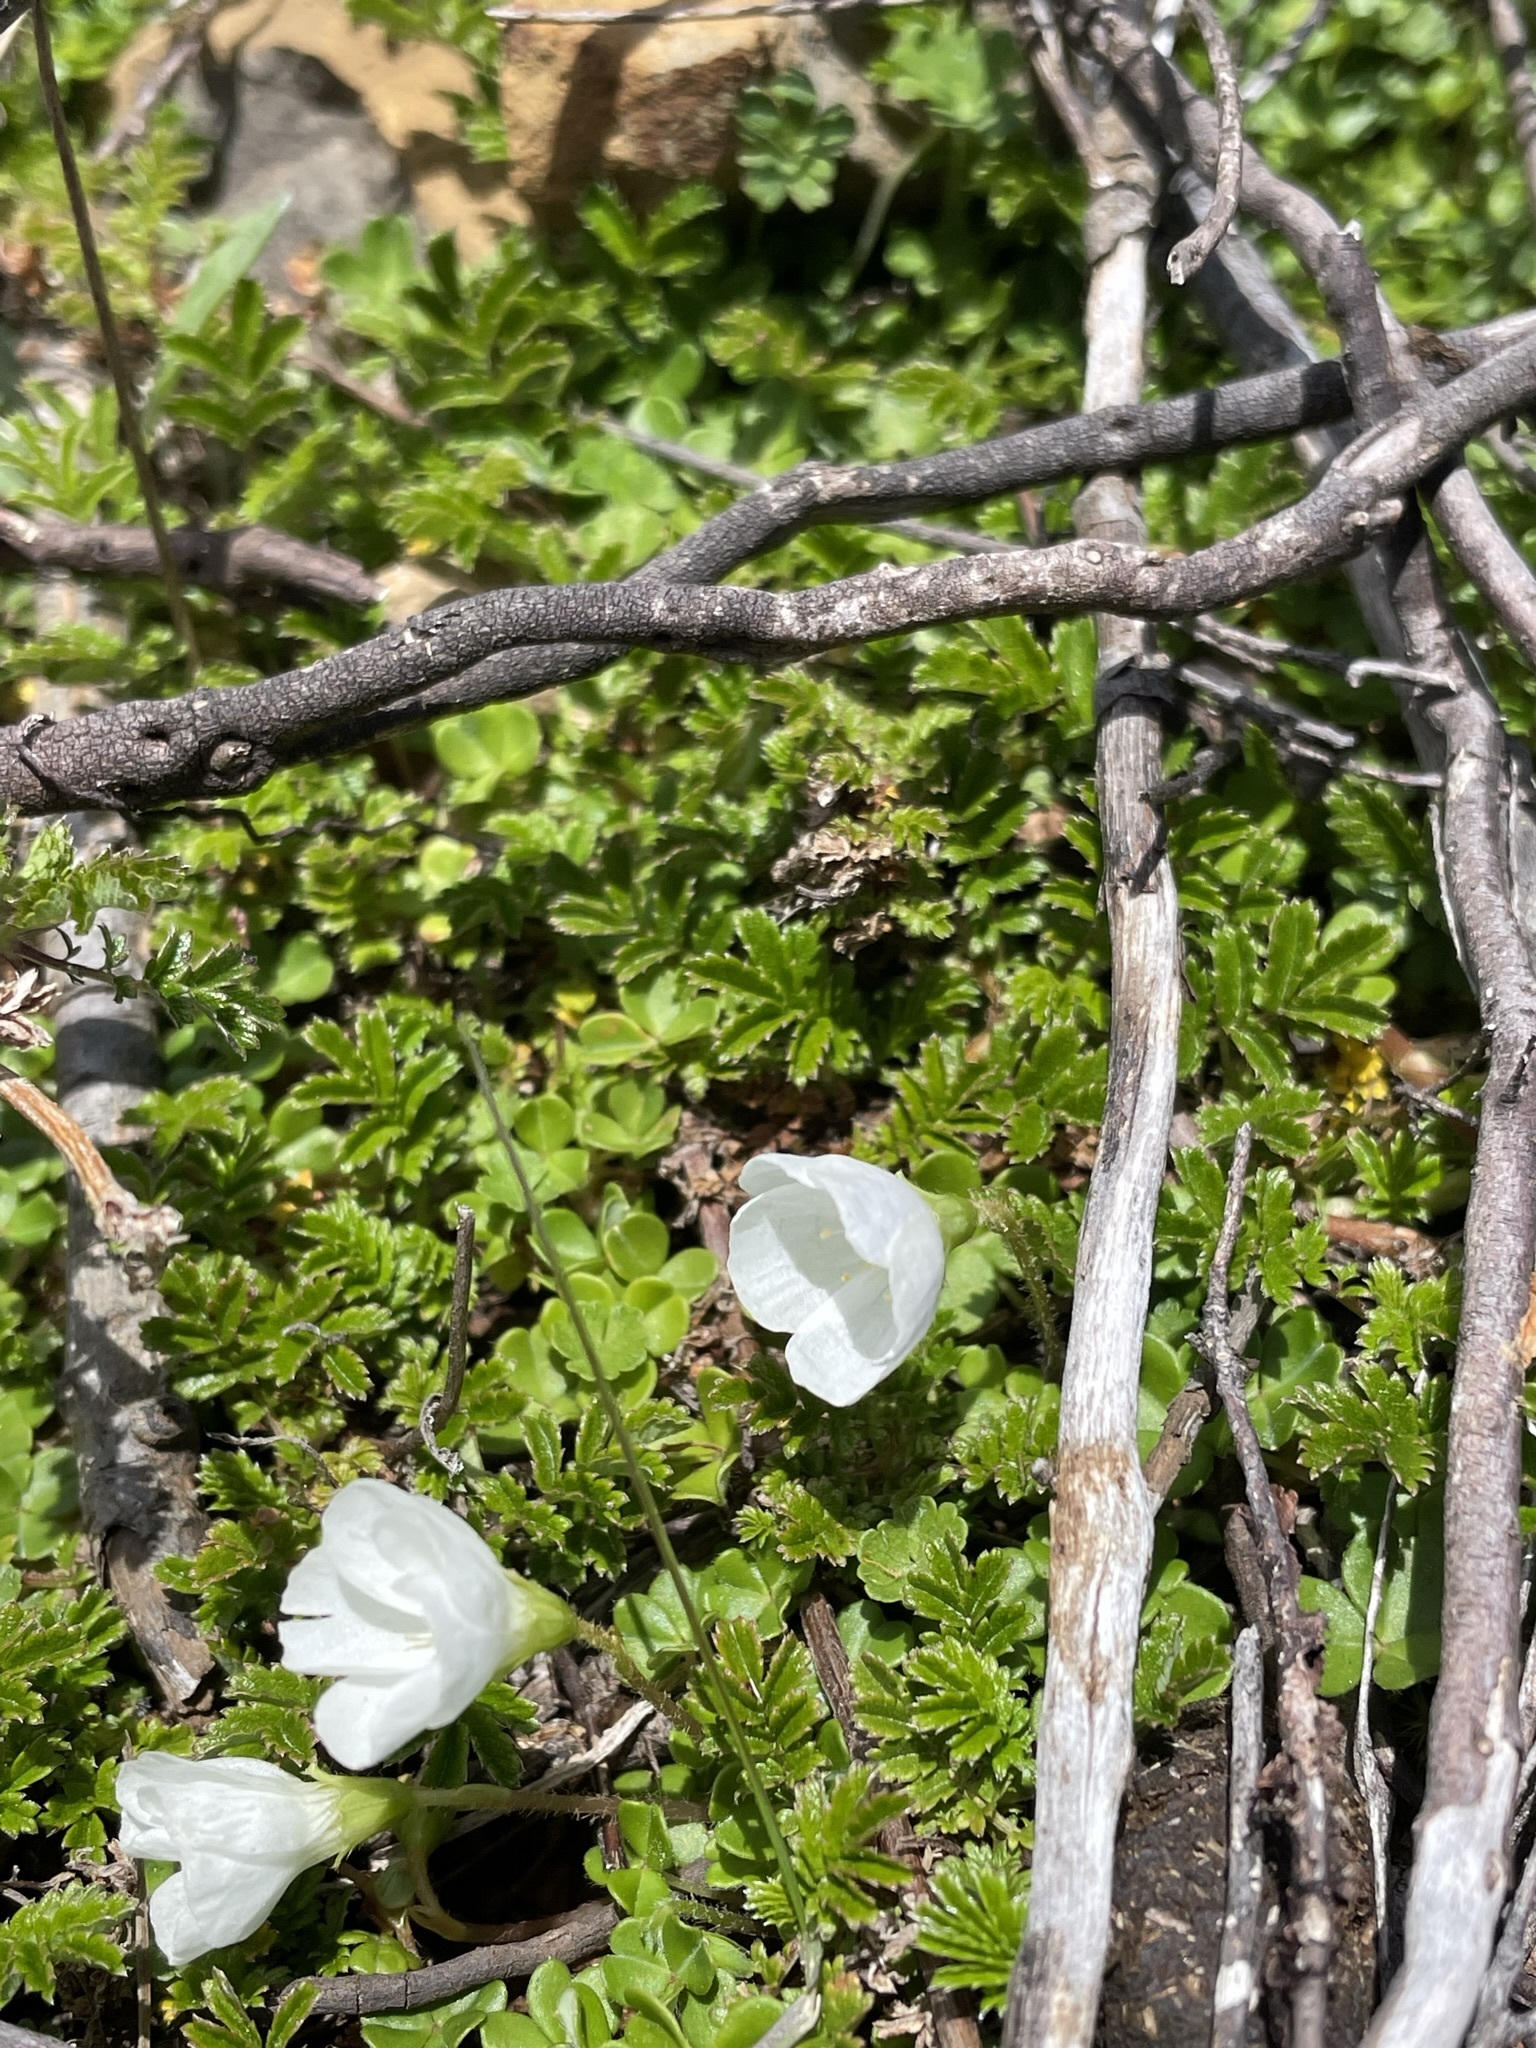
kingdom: Plantae
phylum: Tracheophyta
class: Magnoliopsida
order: Oxalidales
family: Oxalidaceae
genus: Oxalis
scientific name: Oxalis magellanica
